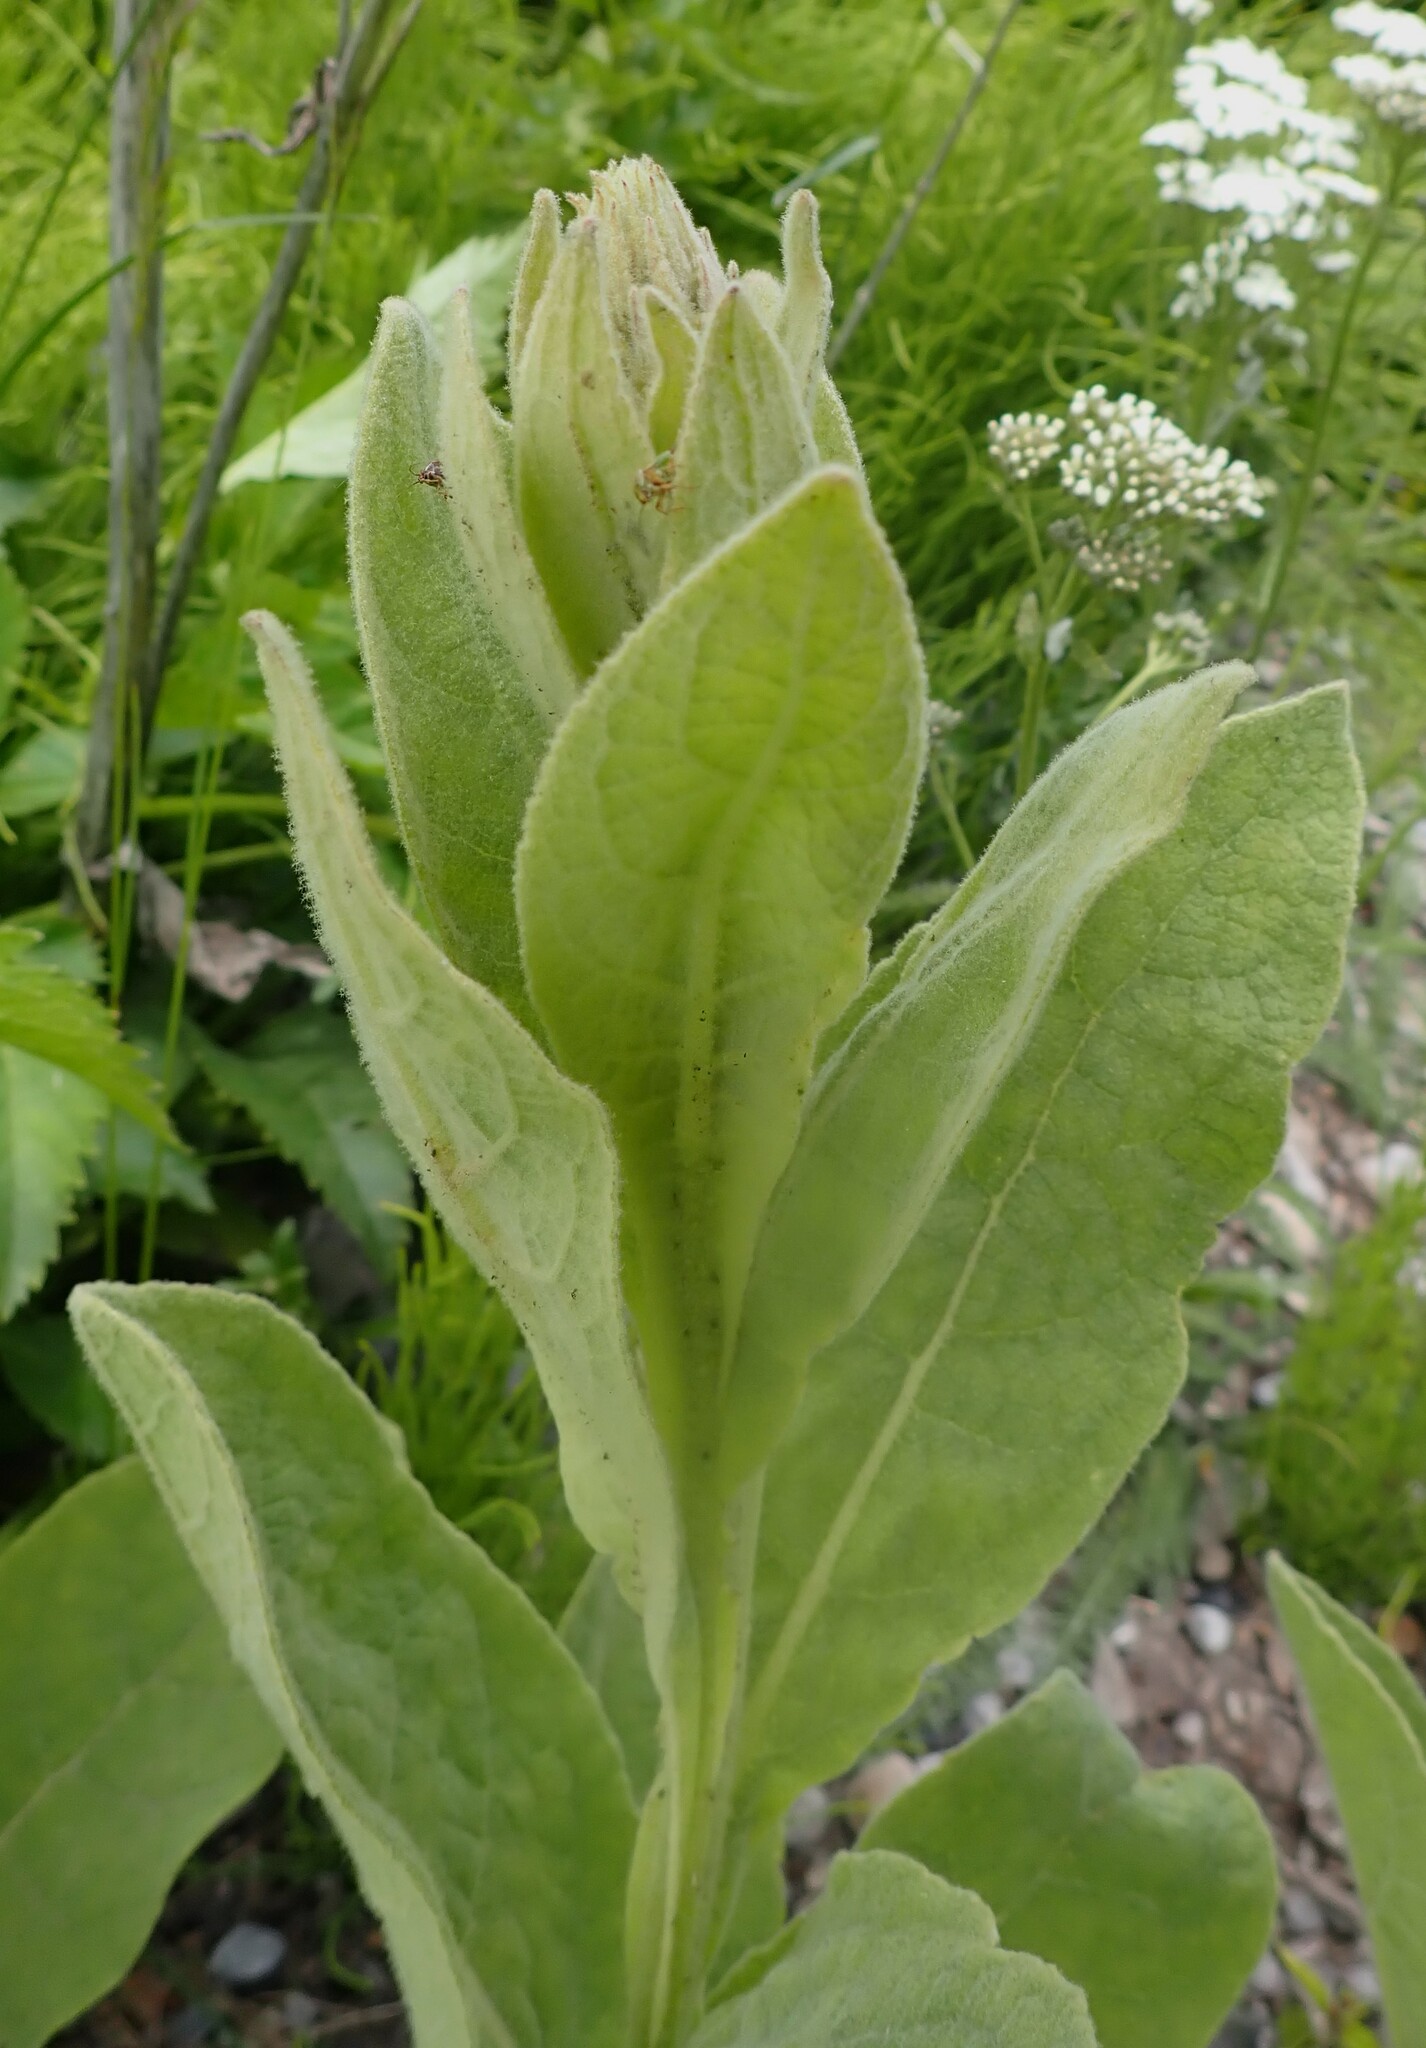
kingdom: Plantae
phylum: Tracheophyta
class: Magnoliopsida
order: Lamiales
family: Scrophulariaceae
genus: Verbascum
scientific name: Verbascum thapsus
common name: Common mullein
